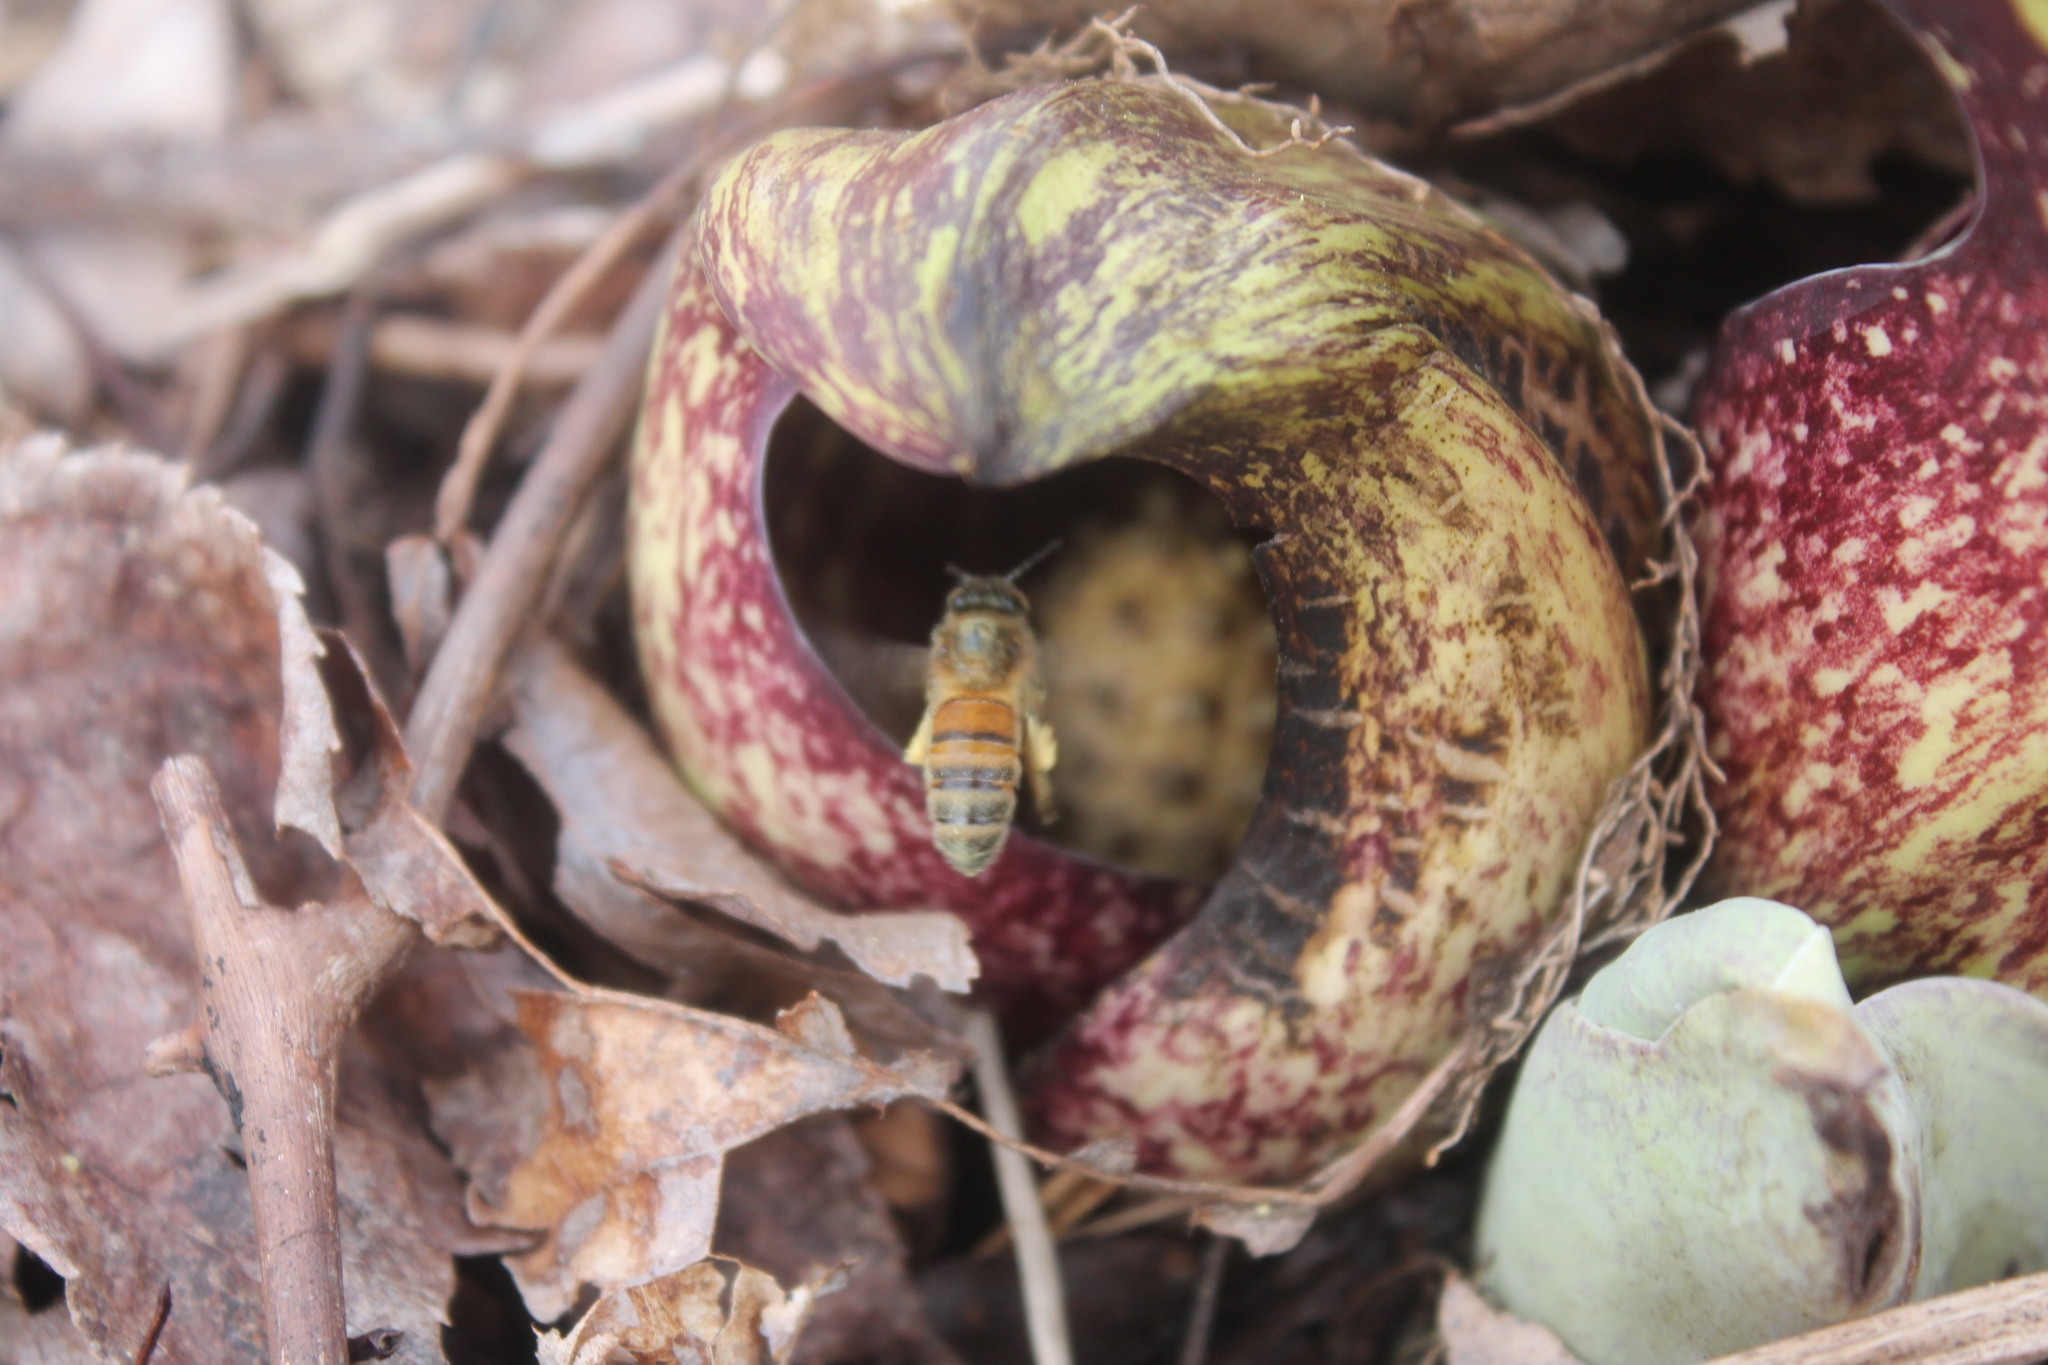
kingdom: Animalia
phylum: Arthropoda
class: Insecta
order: Hymenoptera
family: Apidae
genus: Apis
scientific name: Apis mellifera
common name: Honey bee
